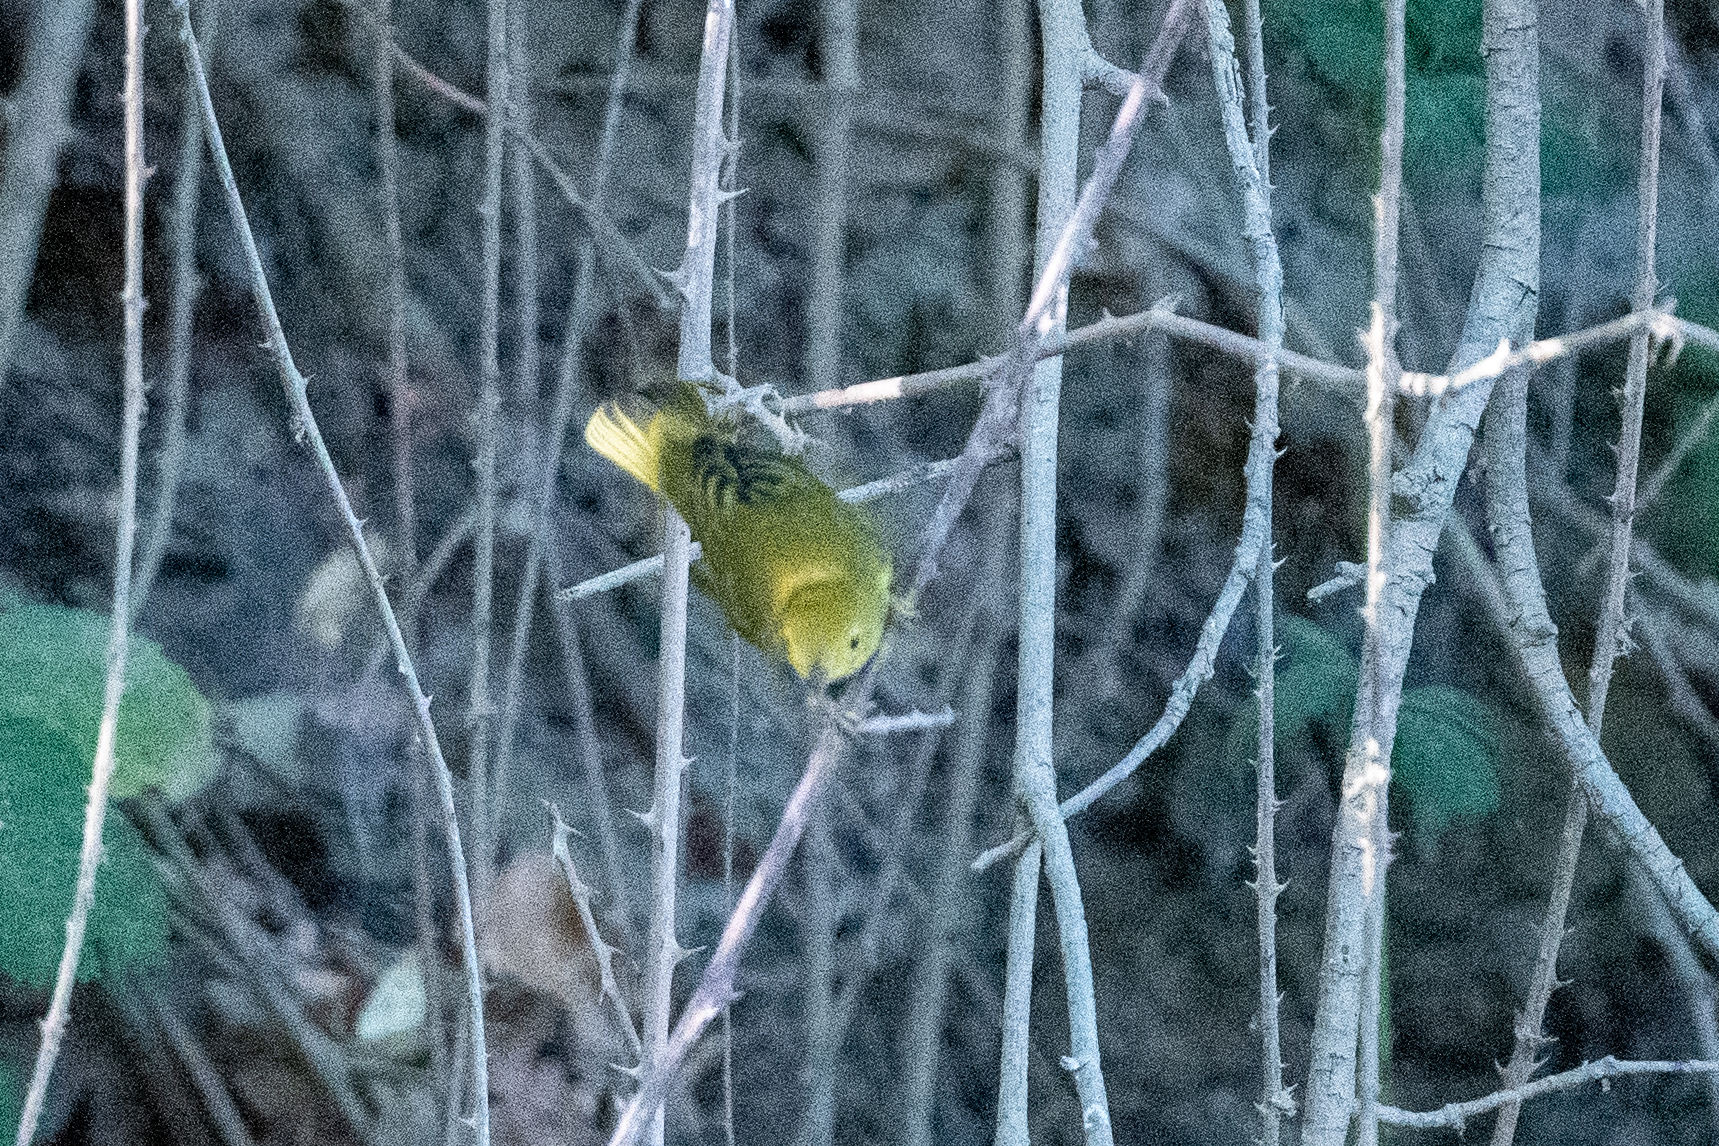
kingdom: Animalia
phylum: Chordata
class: Aves
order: Passeriformes
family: Parulidae
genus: Setophaga
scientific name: Setophaga petechia
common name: Yellow warbler
